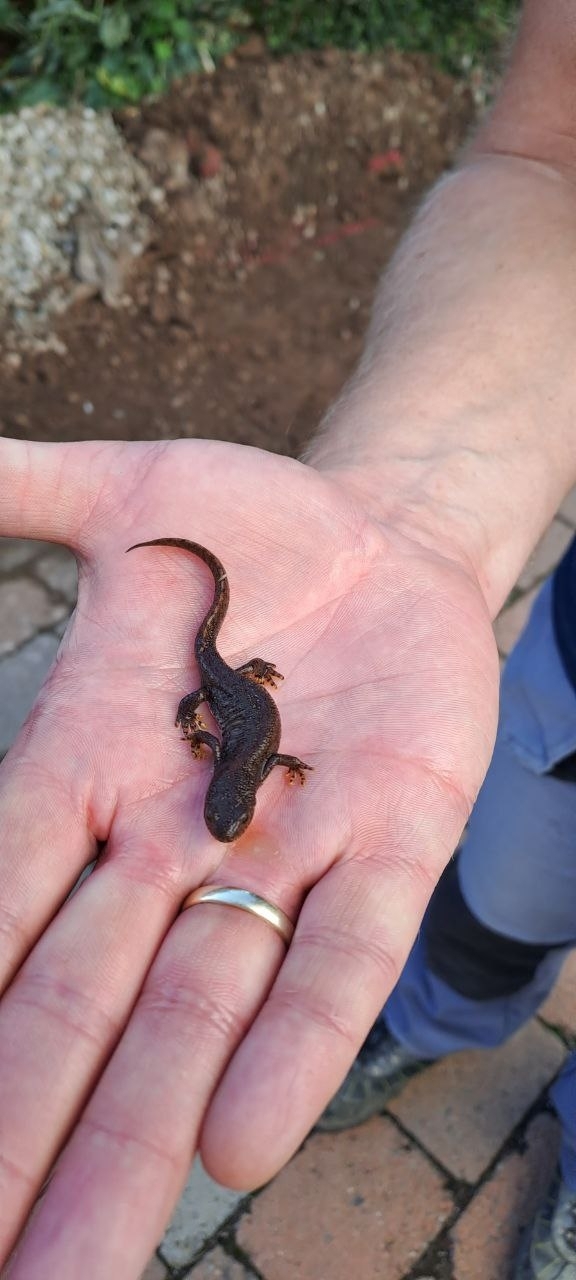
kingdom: Animalia
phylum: Chordata
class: Amphibia
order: Caudata
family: Salamandridae
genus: Ichthyosaura
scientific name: Ichthyosaura alpestris
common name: Alpine newt
